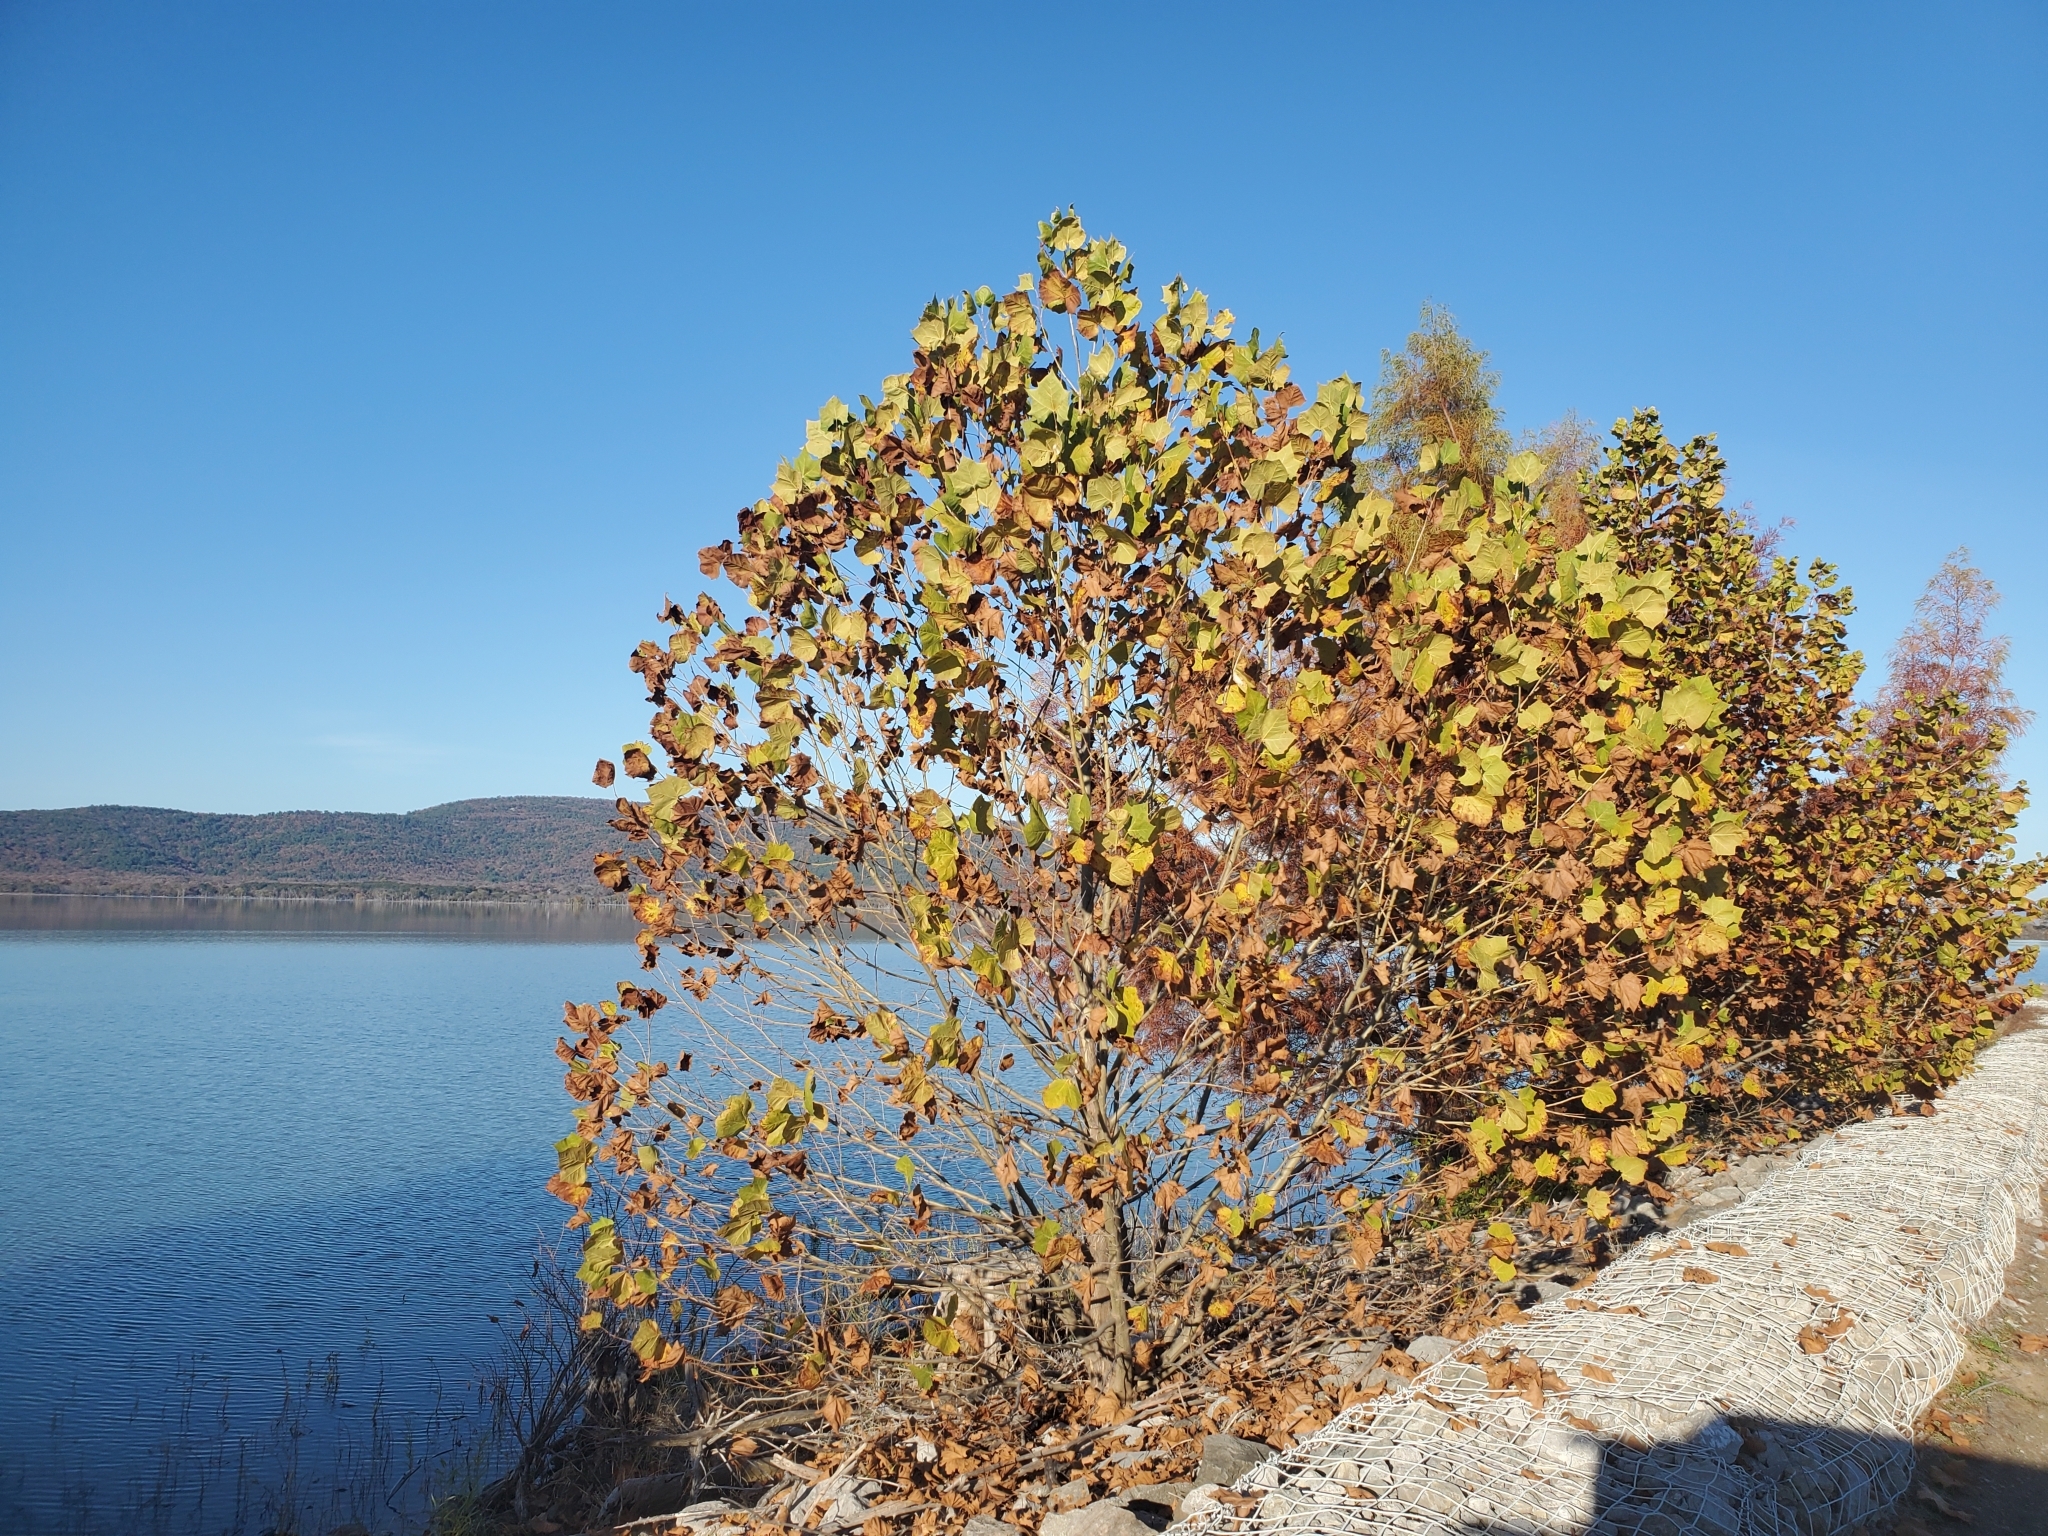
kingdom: Plantae
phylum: Tracheophyta
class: Magnoliopsida
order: Proteales
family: Platanaceae
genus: Platanus
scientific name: Platanus occidentalis
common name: American sycamore
